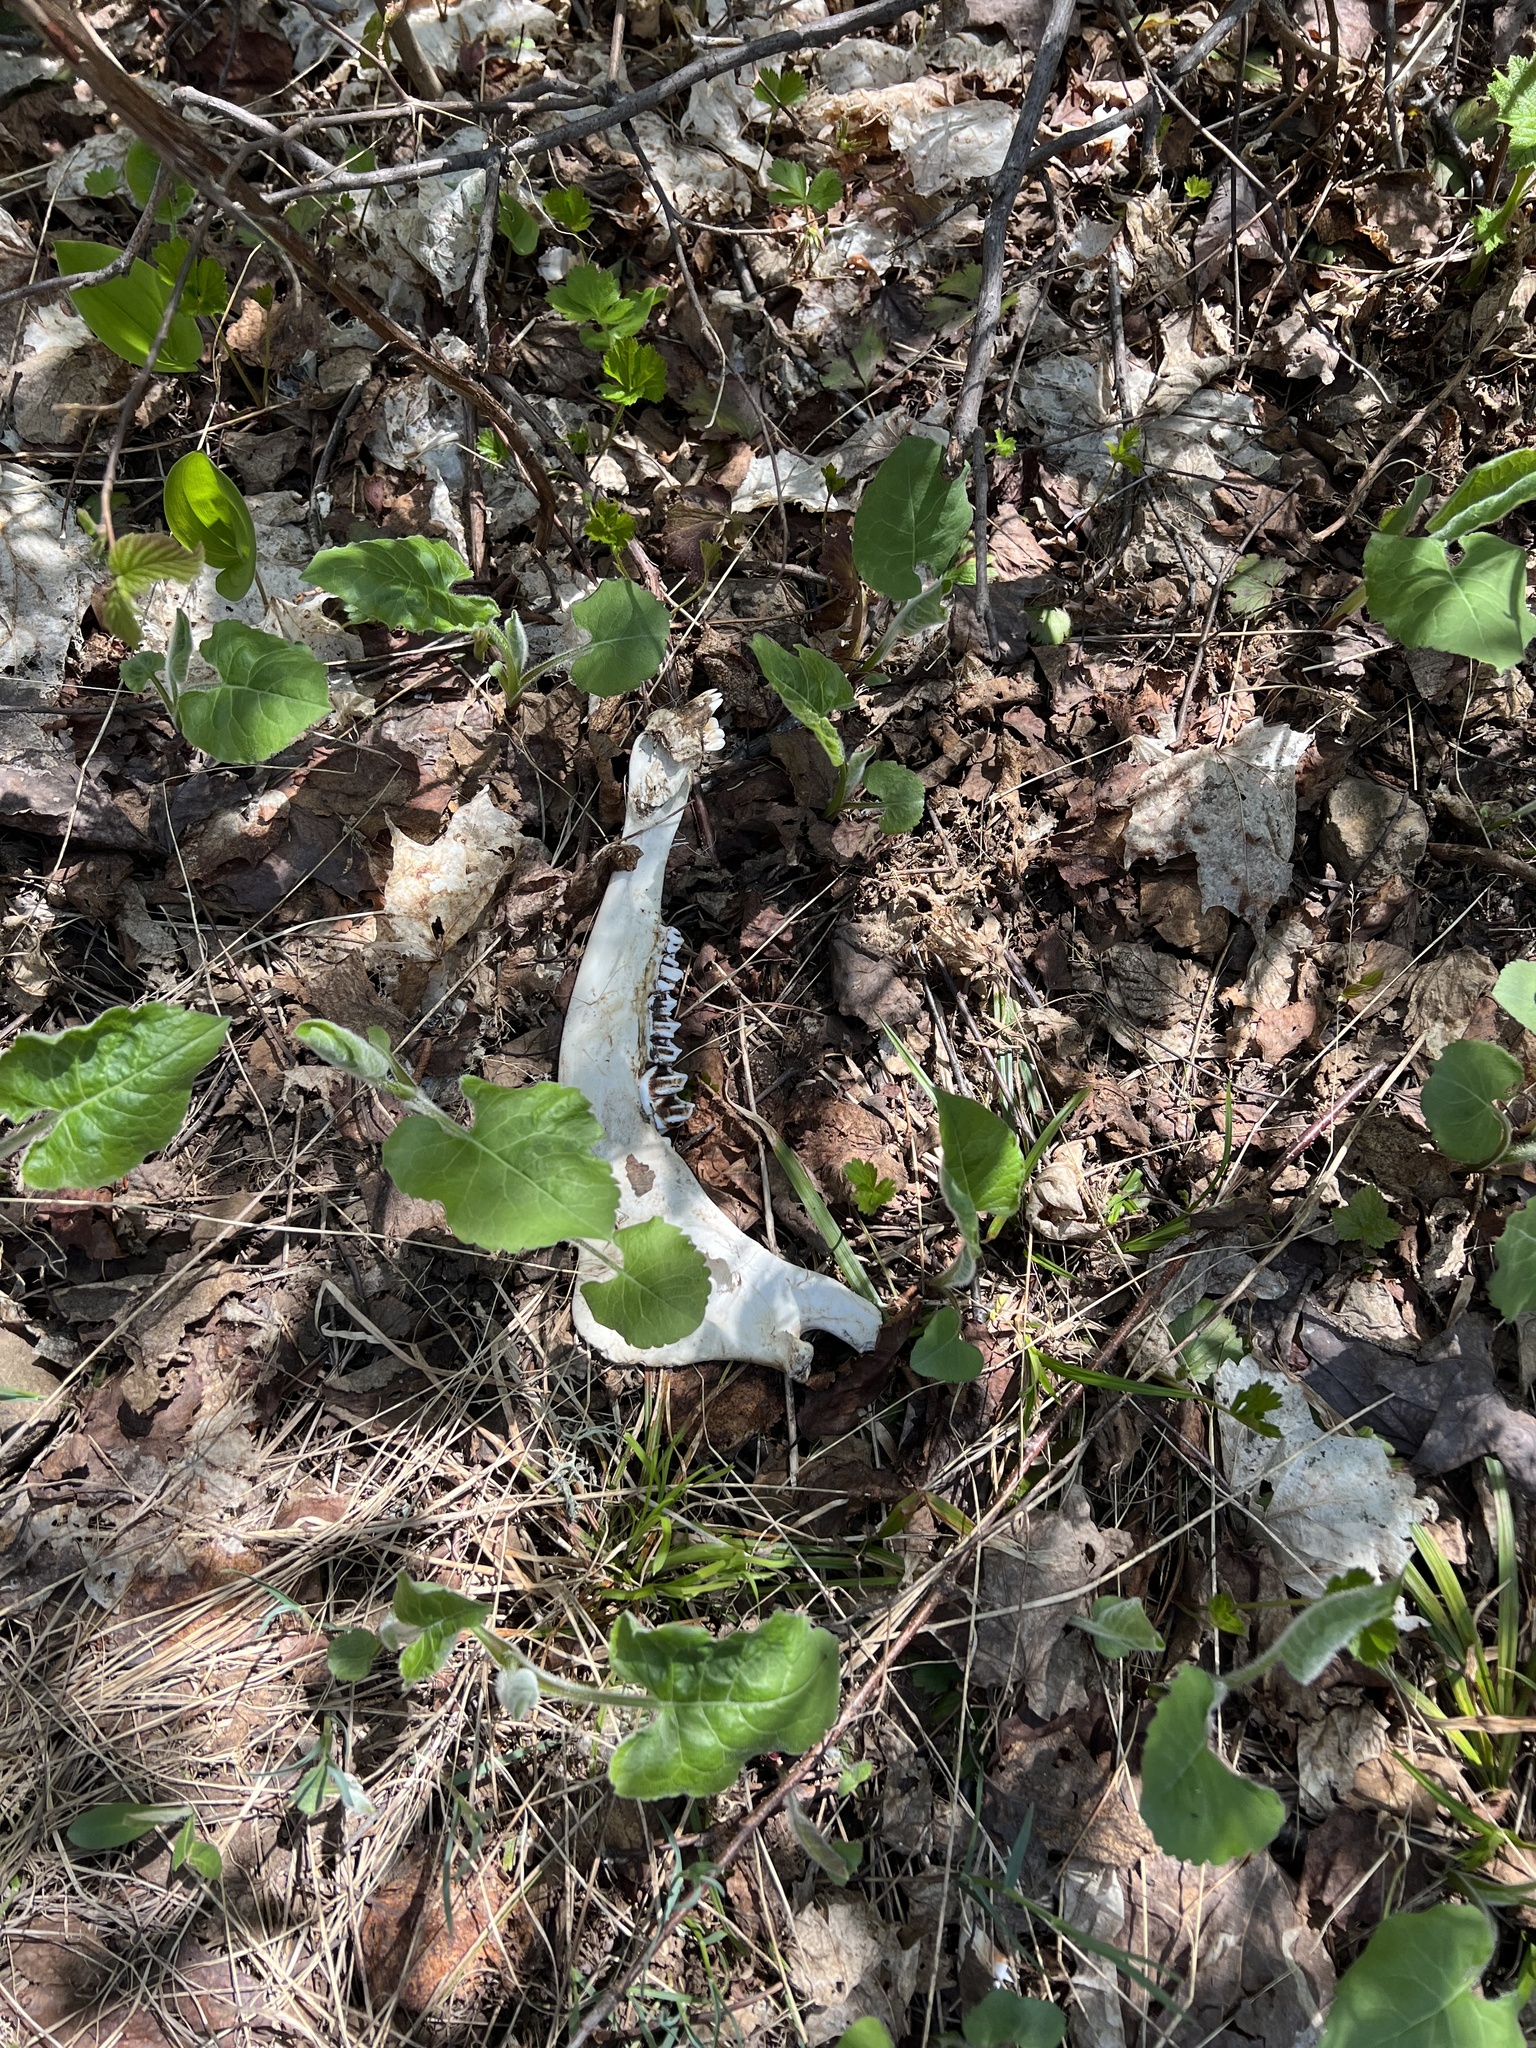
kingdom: Animalia
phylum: Chordata
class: Mammalia
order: Artiodactyla
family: Cervidae
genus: Alces
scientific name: Alces alces
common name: Moose
